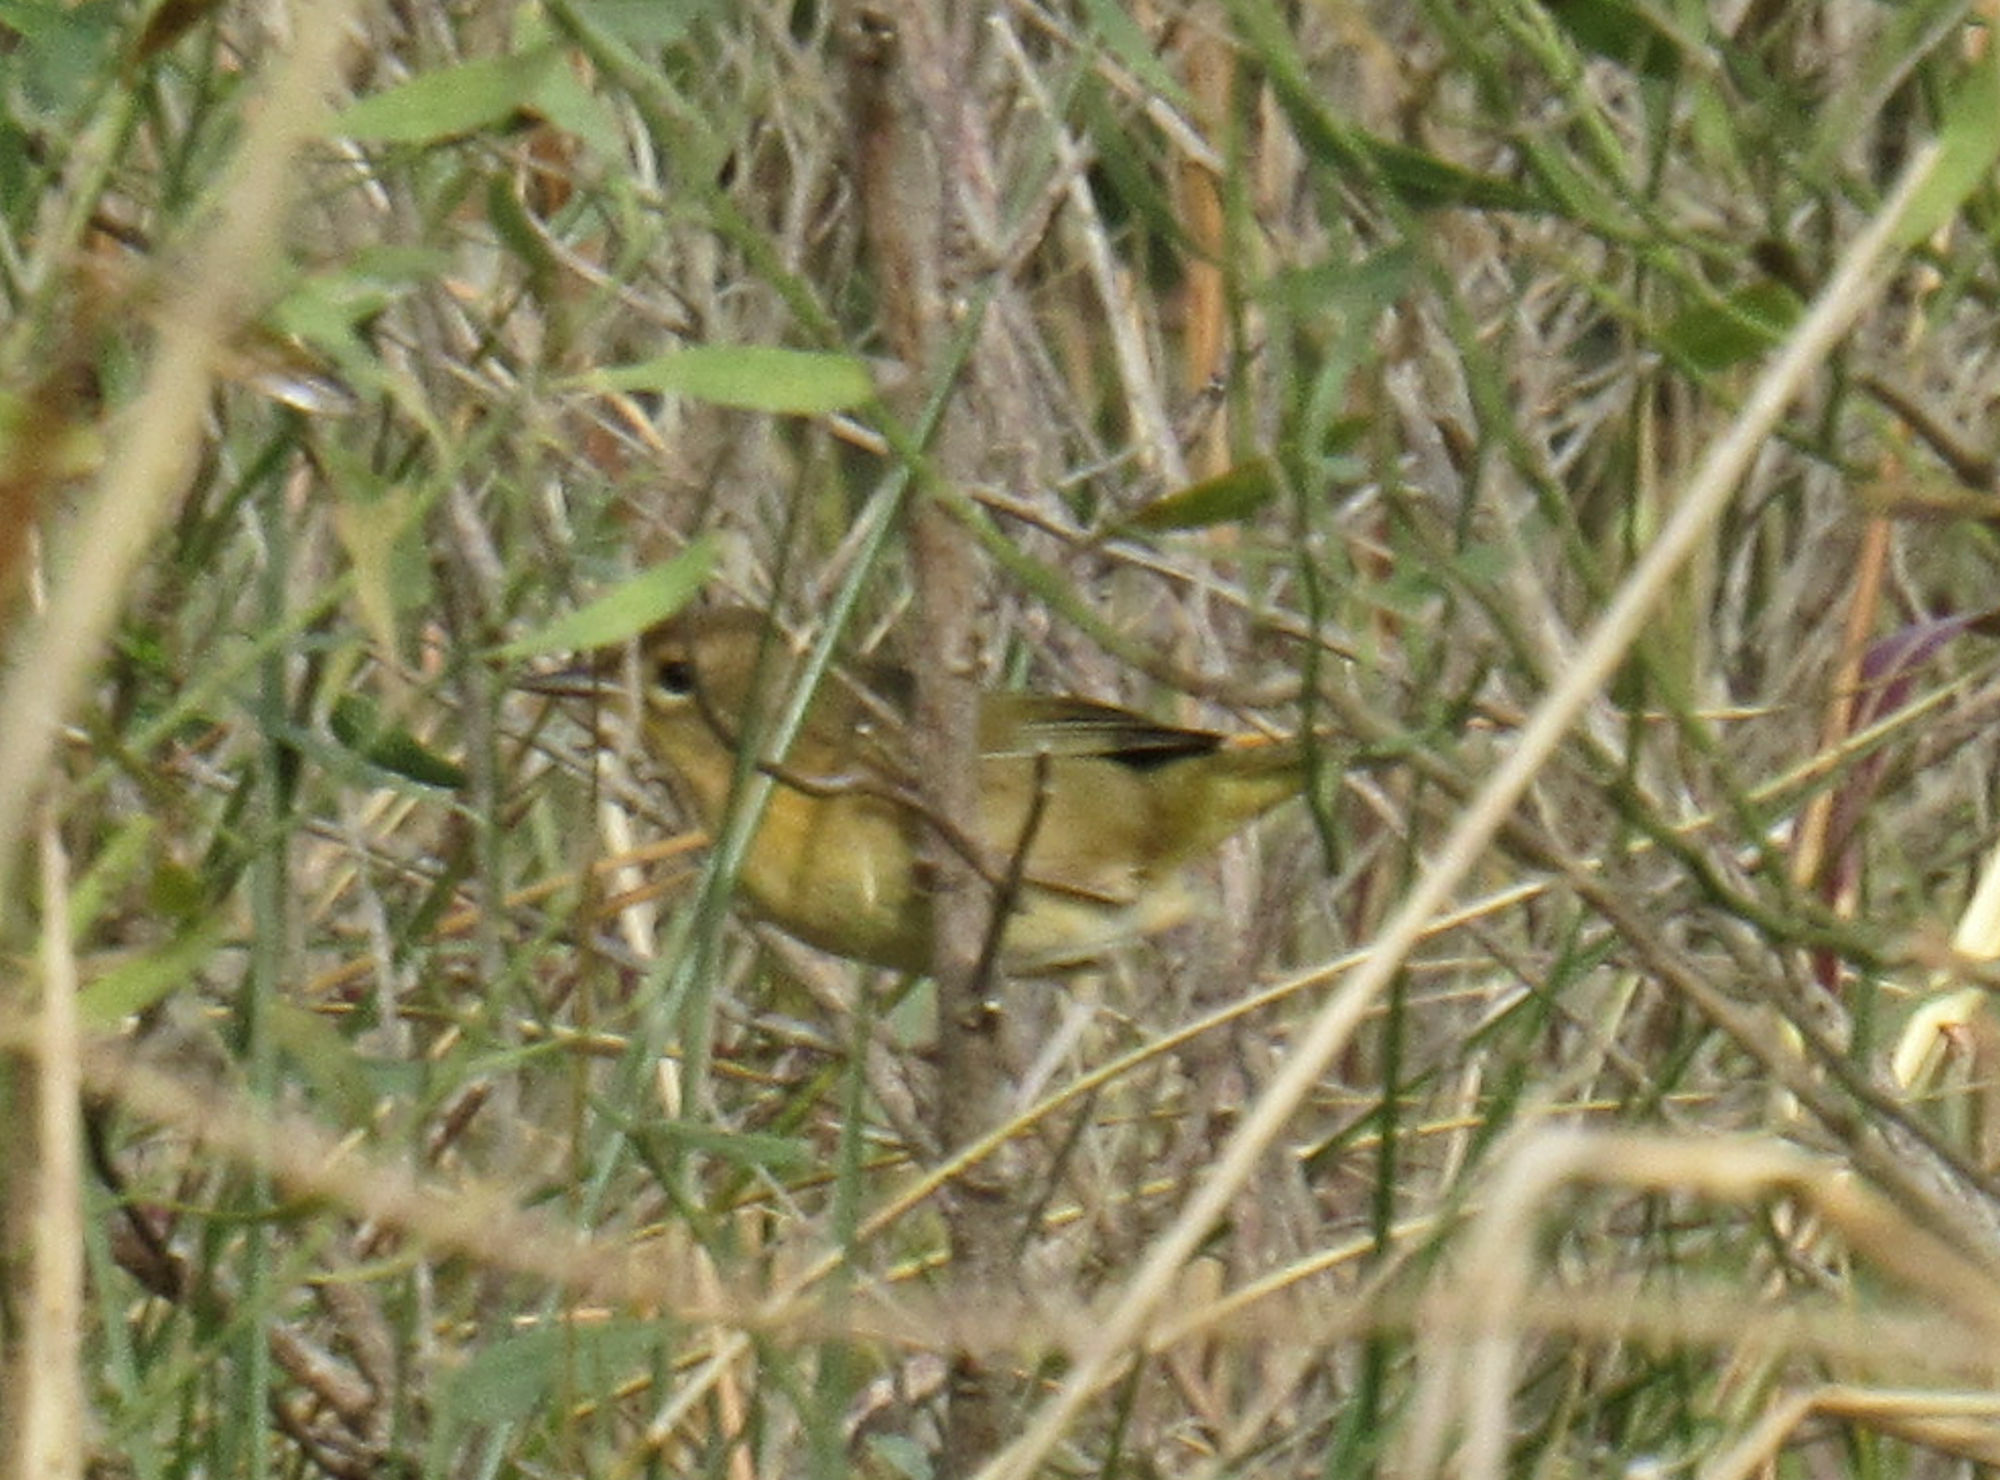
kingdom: Animalia
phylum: Chordata
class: Aves
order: Passeriformes
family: Parulidae
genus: Geothlypis
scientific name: Geothlypis trichas
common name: Common yellowthroat
